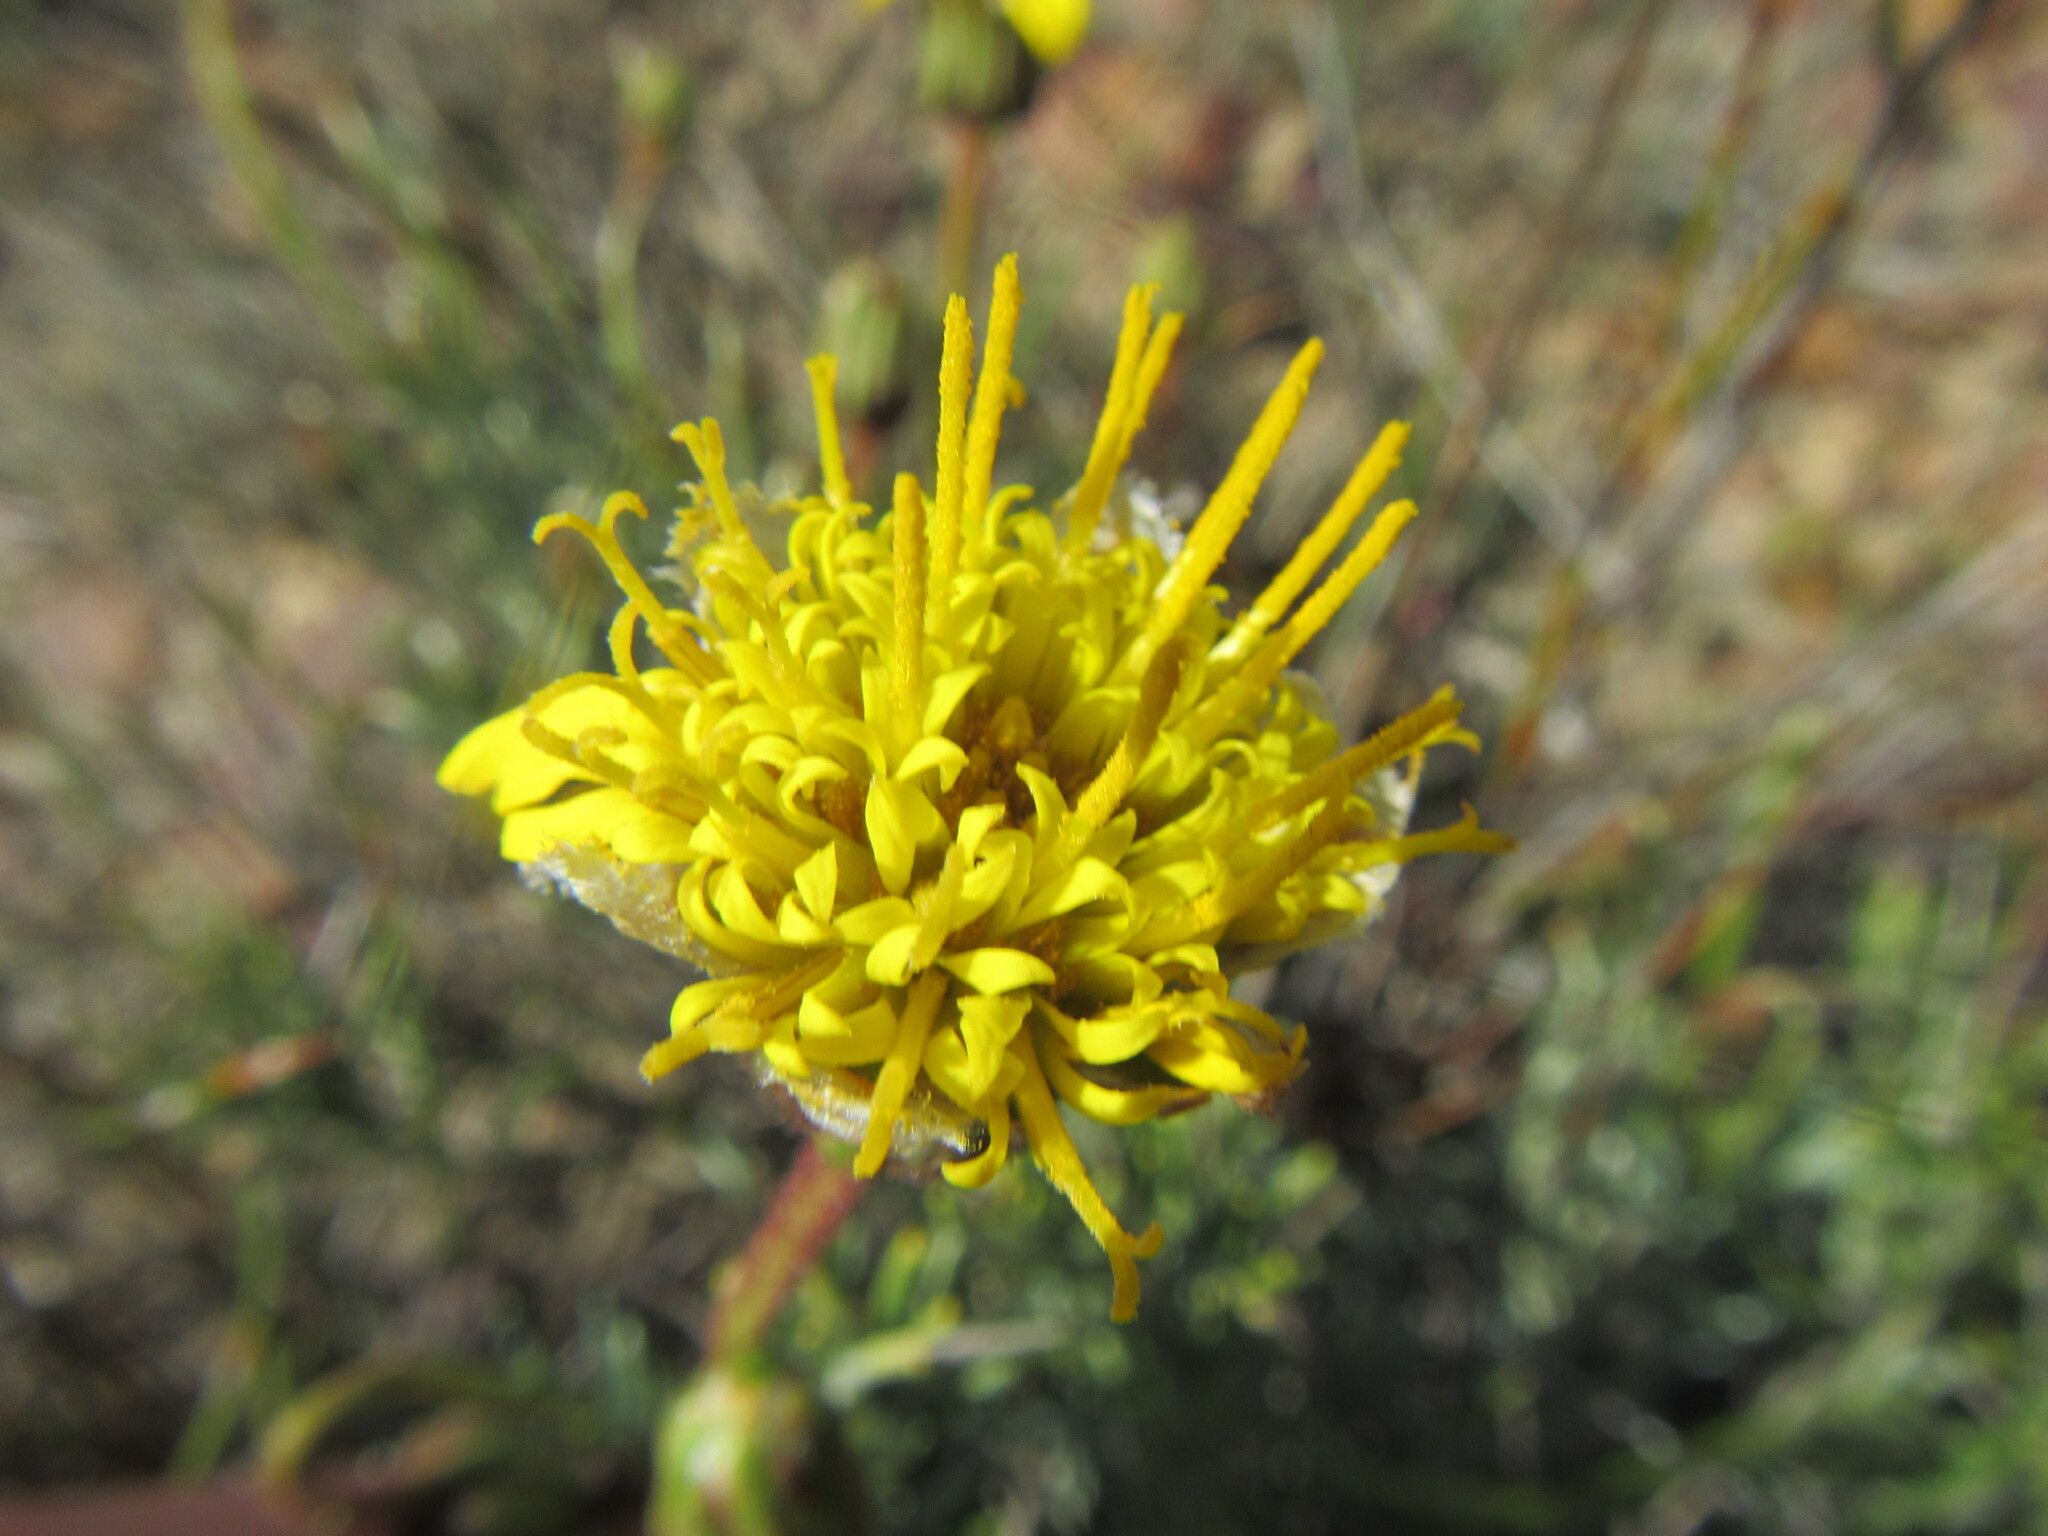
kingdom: Plantae
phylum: Tracheophyta
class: Magnoliopsida
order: Asterales
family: Asteraceae
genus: Heterolepis
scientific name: Heterolepis peduncularis
